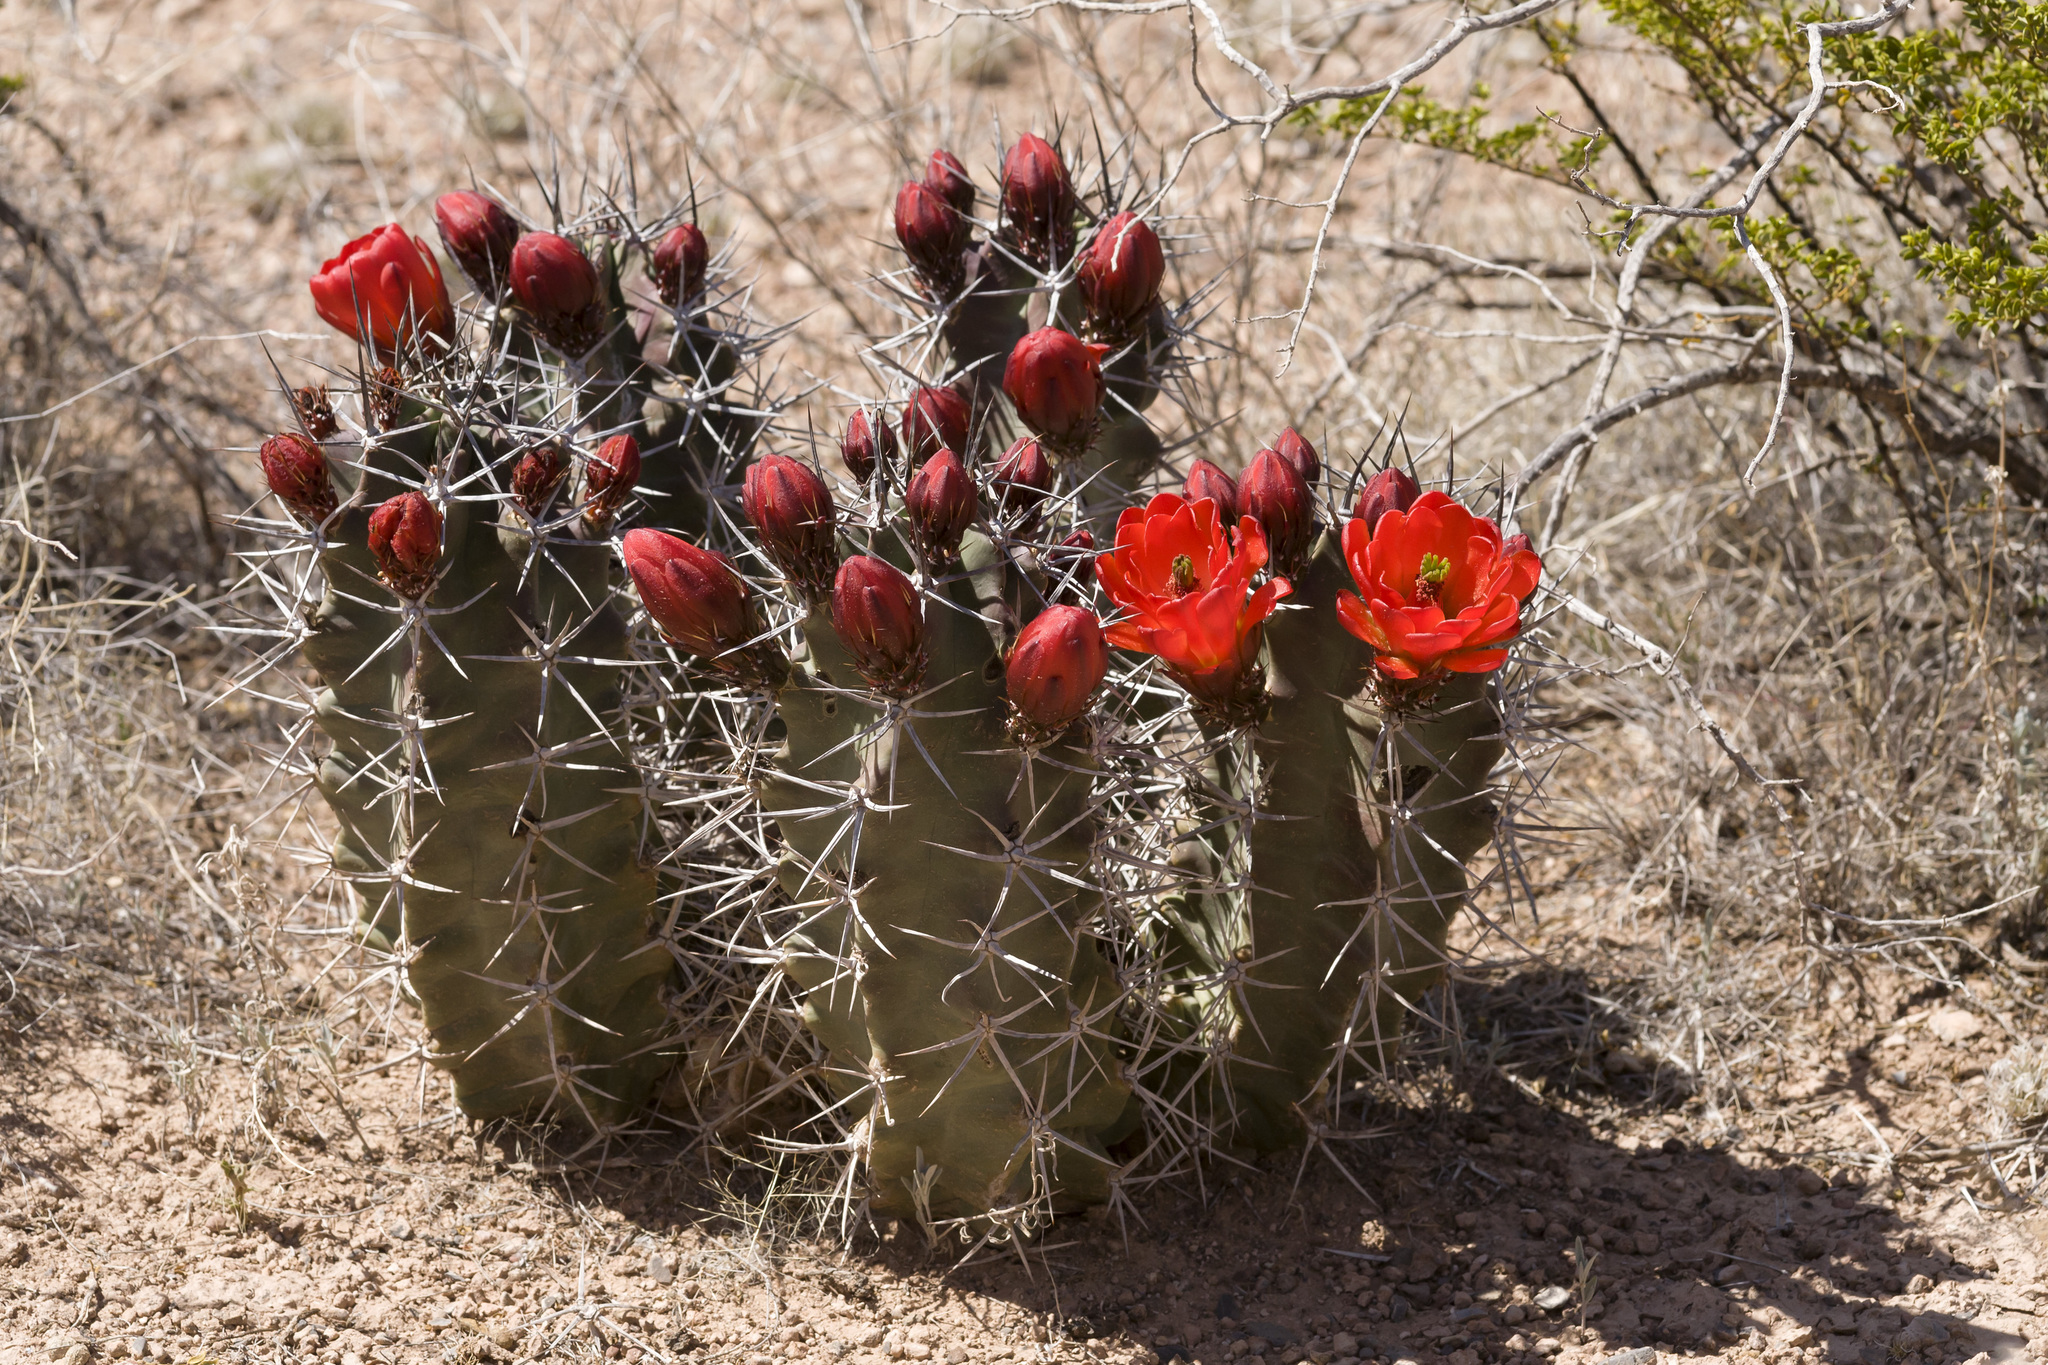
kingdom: Plantae
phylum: Tracheophyta
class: Magnoliopsida
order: Caryophyllales
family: Cactaceae
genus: Echinocereus
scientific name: Echinocereus triglochidiatus
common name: Claretcup hedgehog
